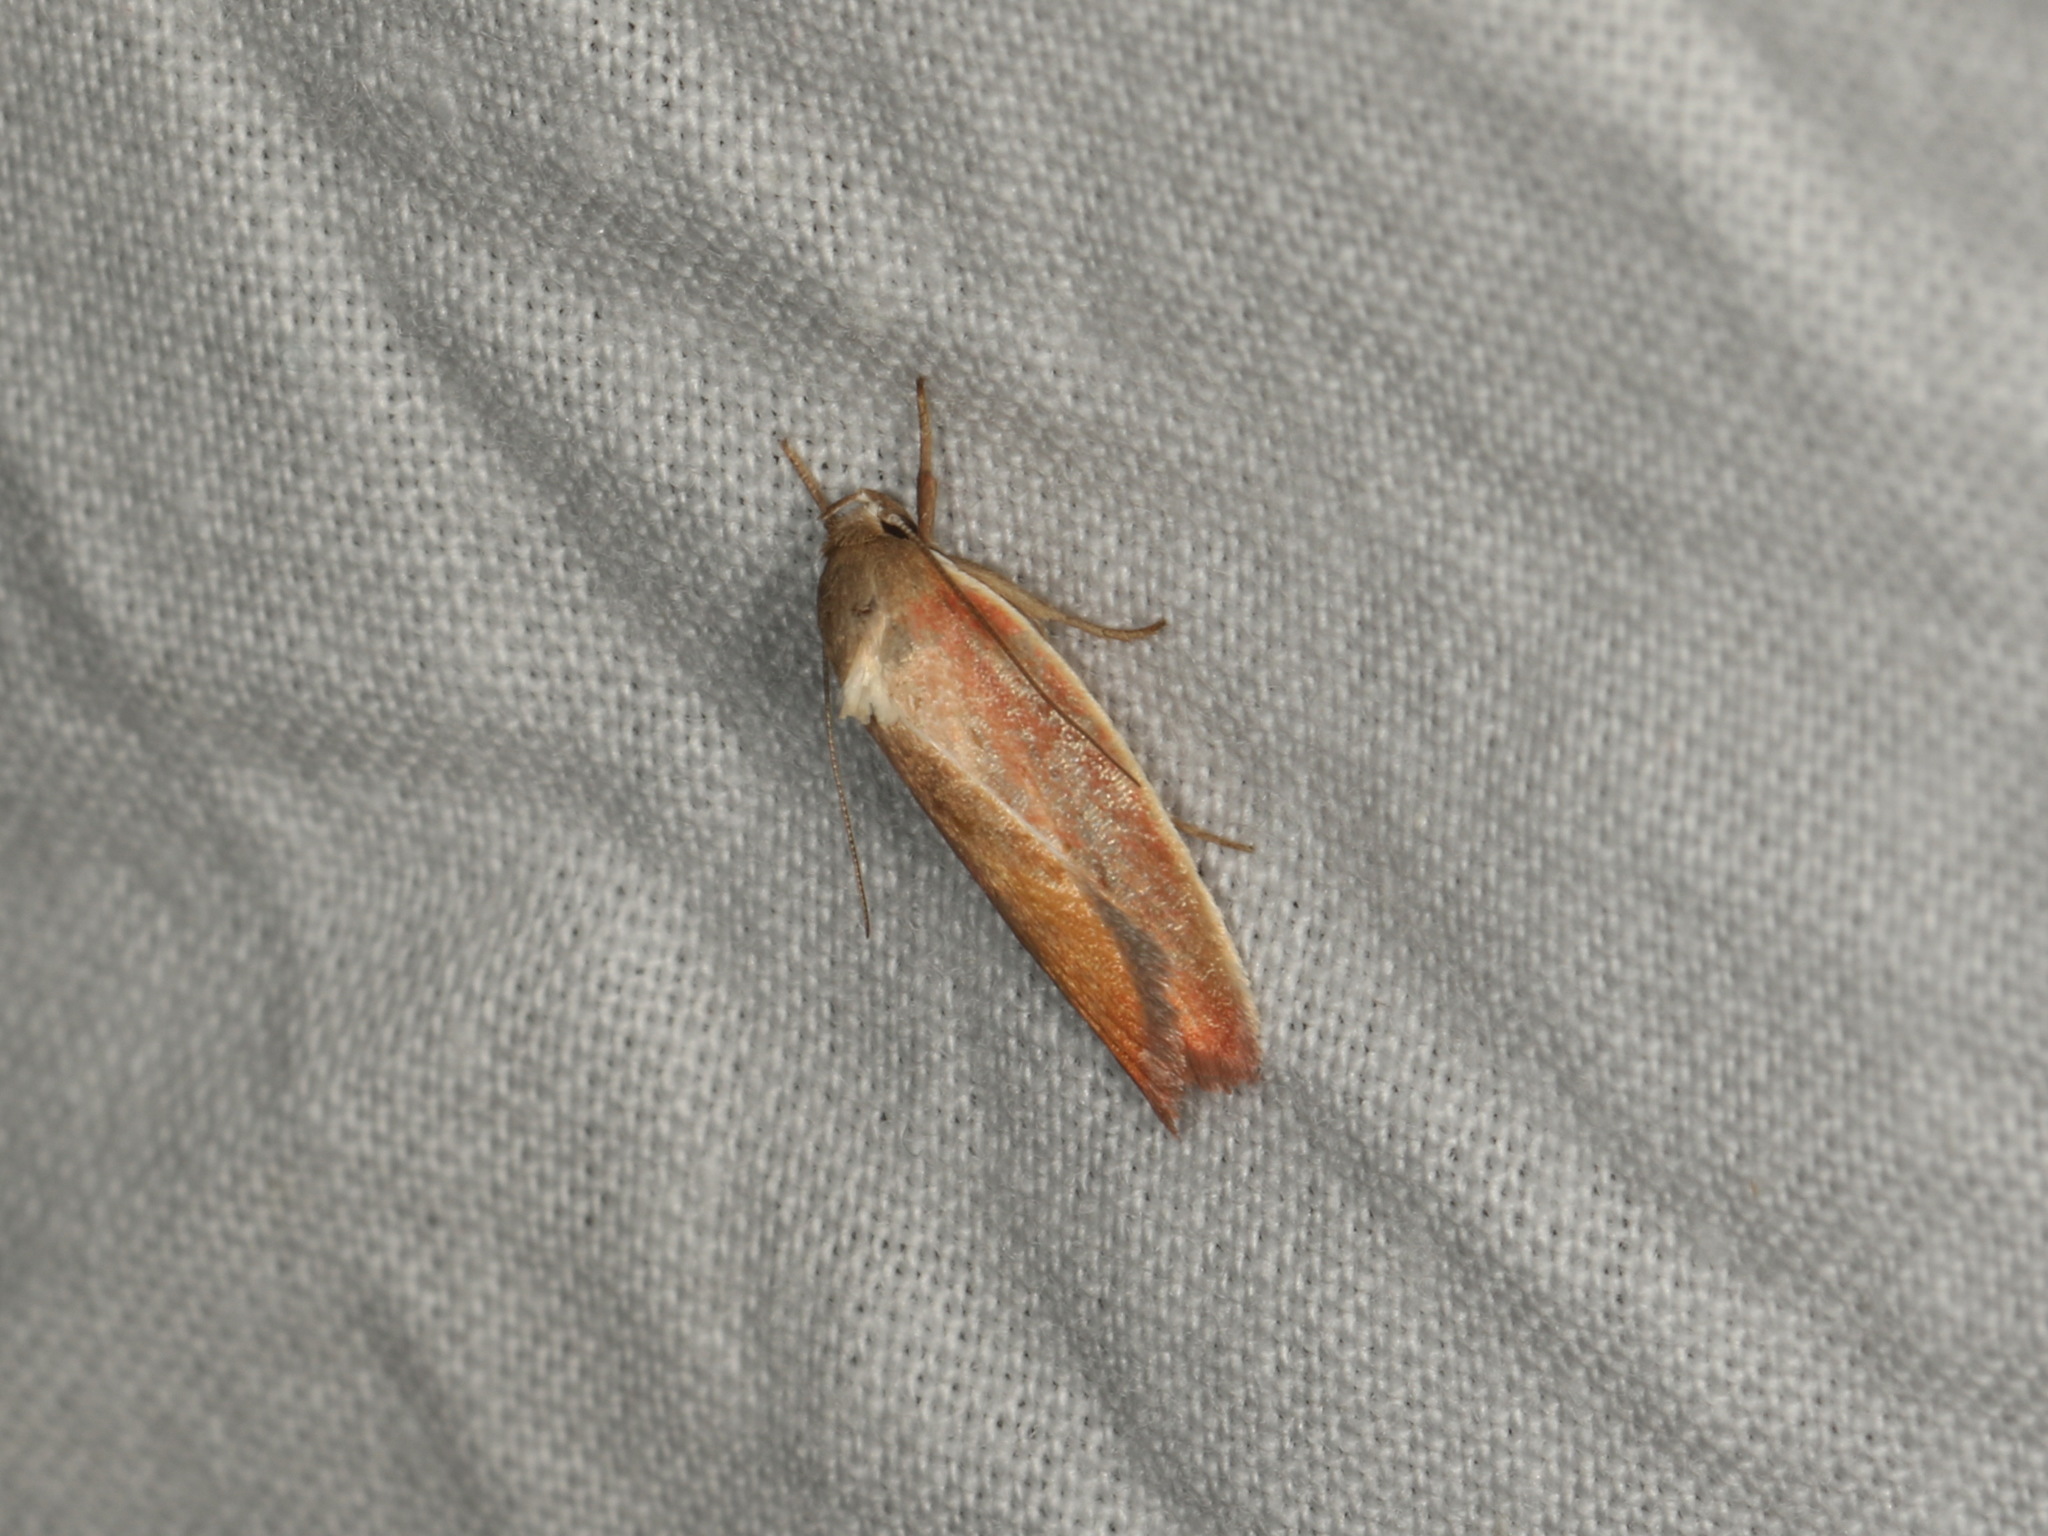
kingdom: Animalia
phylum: Arthropoda
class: Insecta
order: Lepidoptera
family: Oecophoridae
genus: Ptyoptila
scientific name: Ptyoptila matutinella
